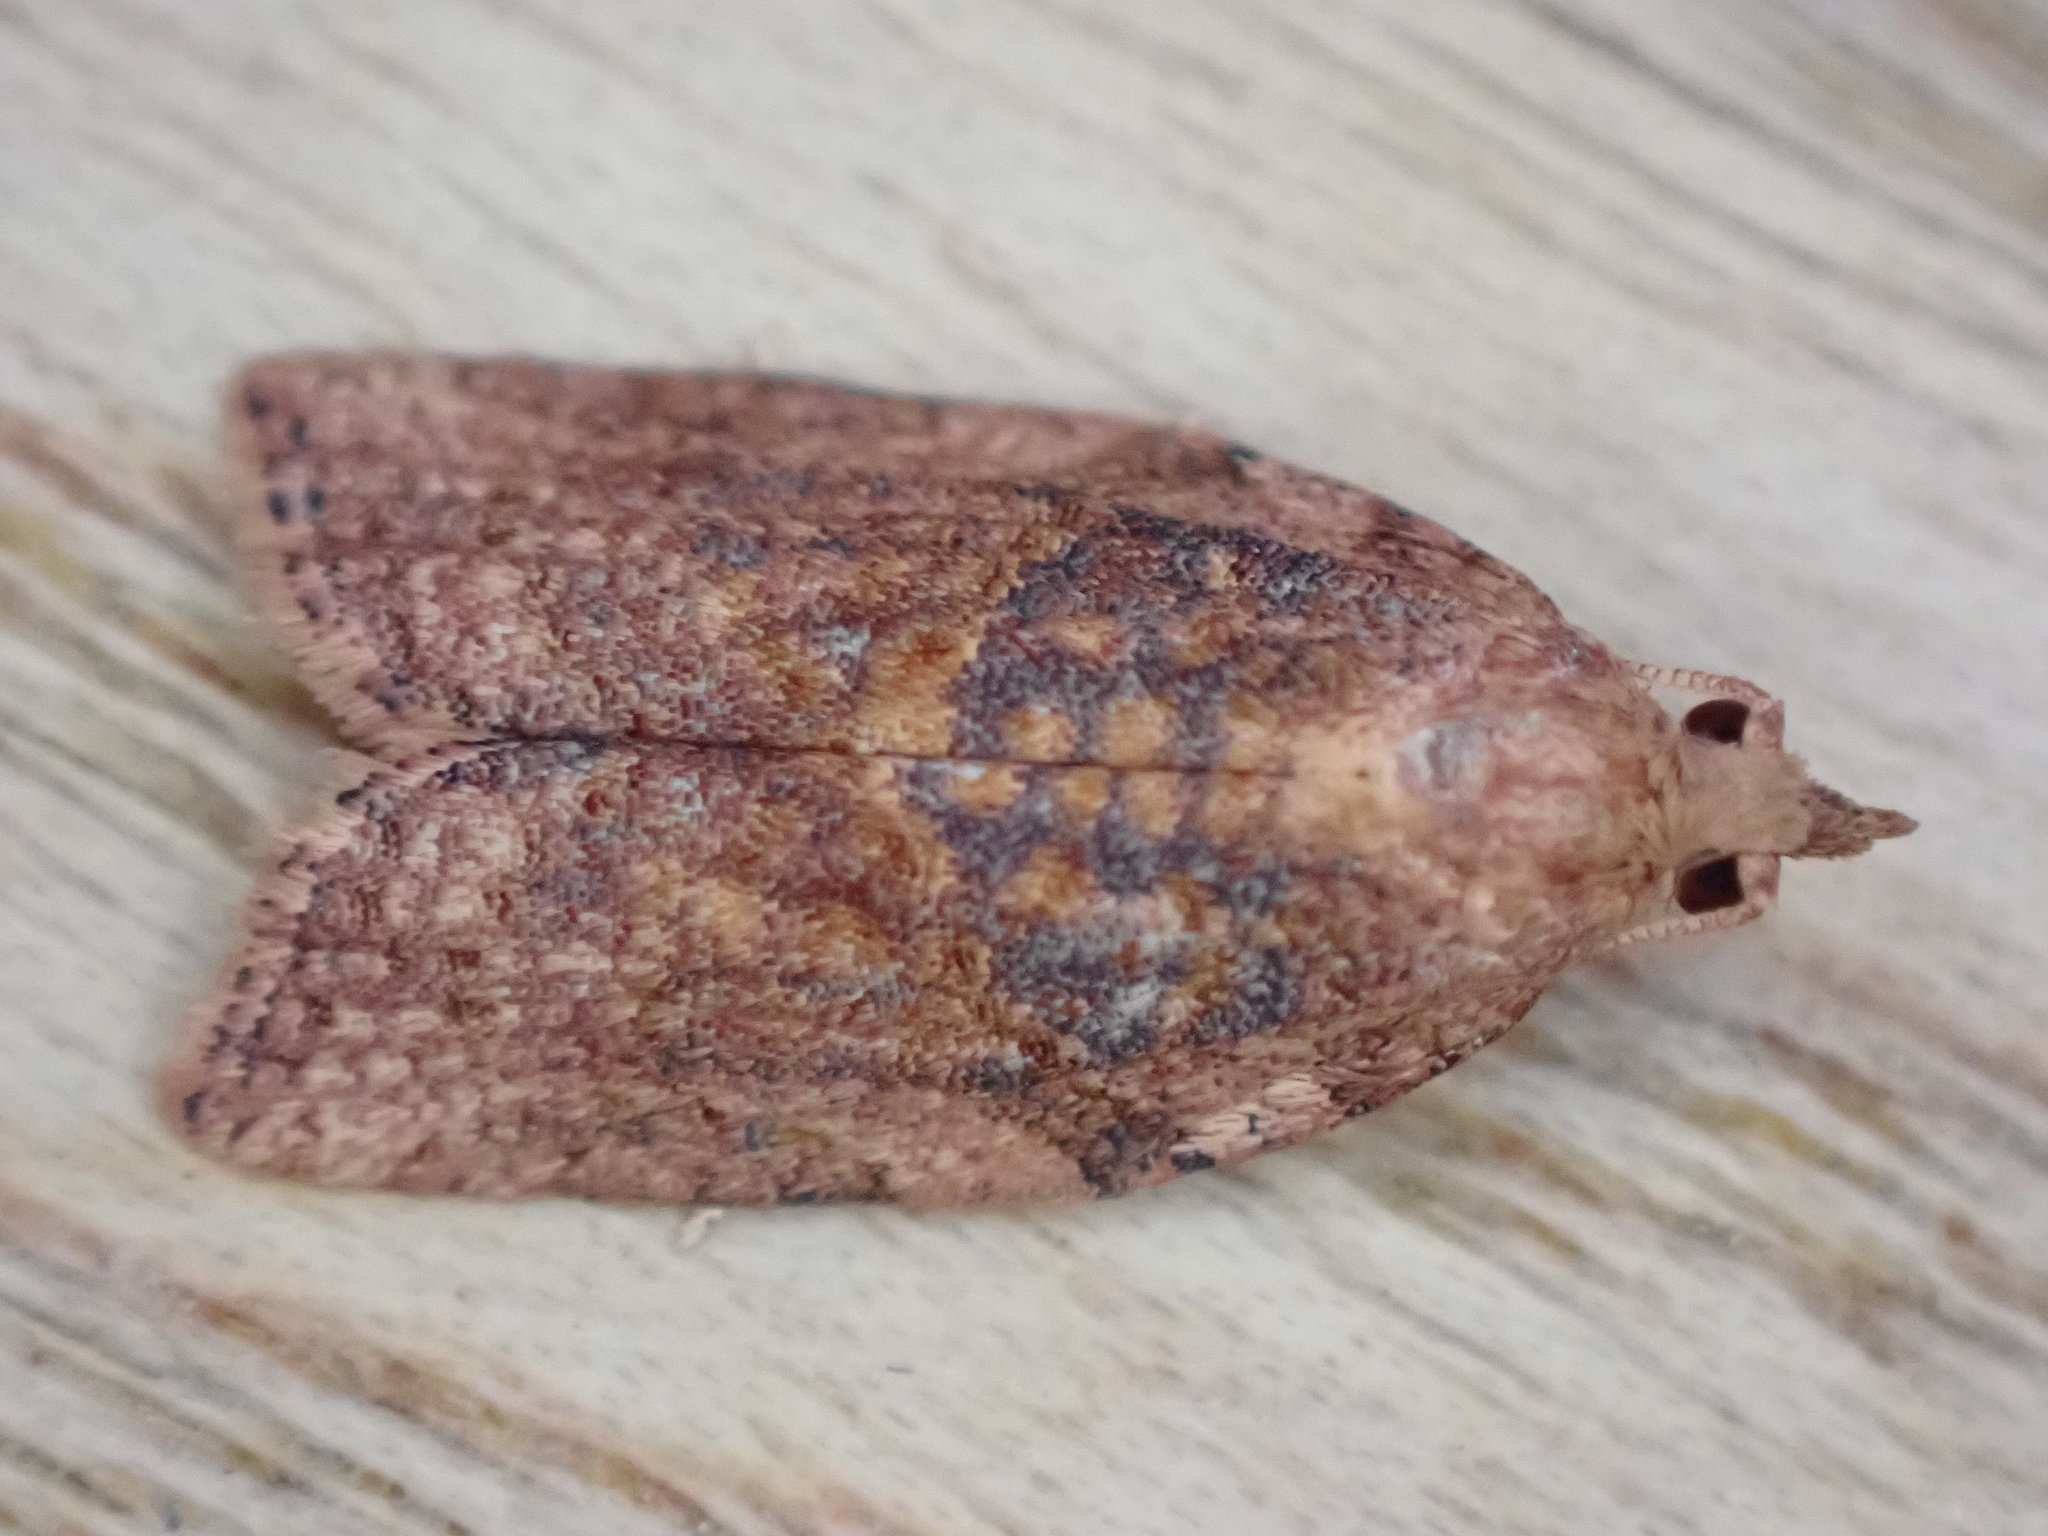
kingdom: Animalia
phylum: Arthropoda
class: Insecta
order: Lepidoptera
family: Tortricidae
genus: Epiphyas
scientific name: Epiphyas postvittana
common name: Light brown apple moth
